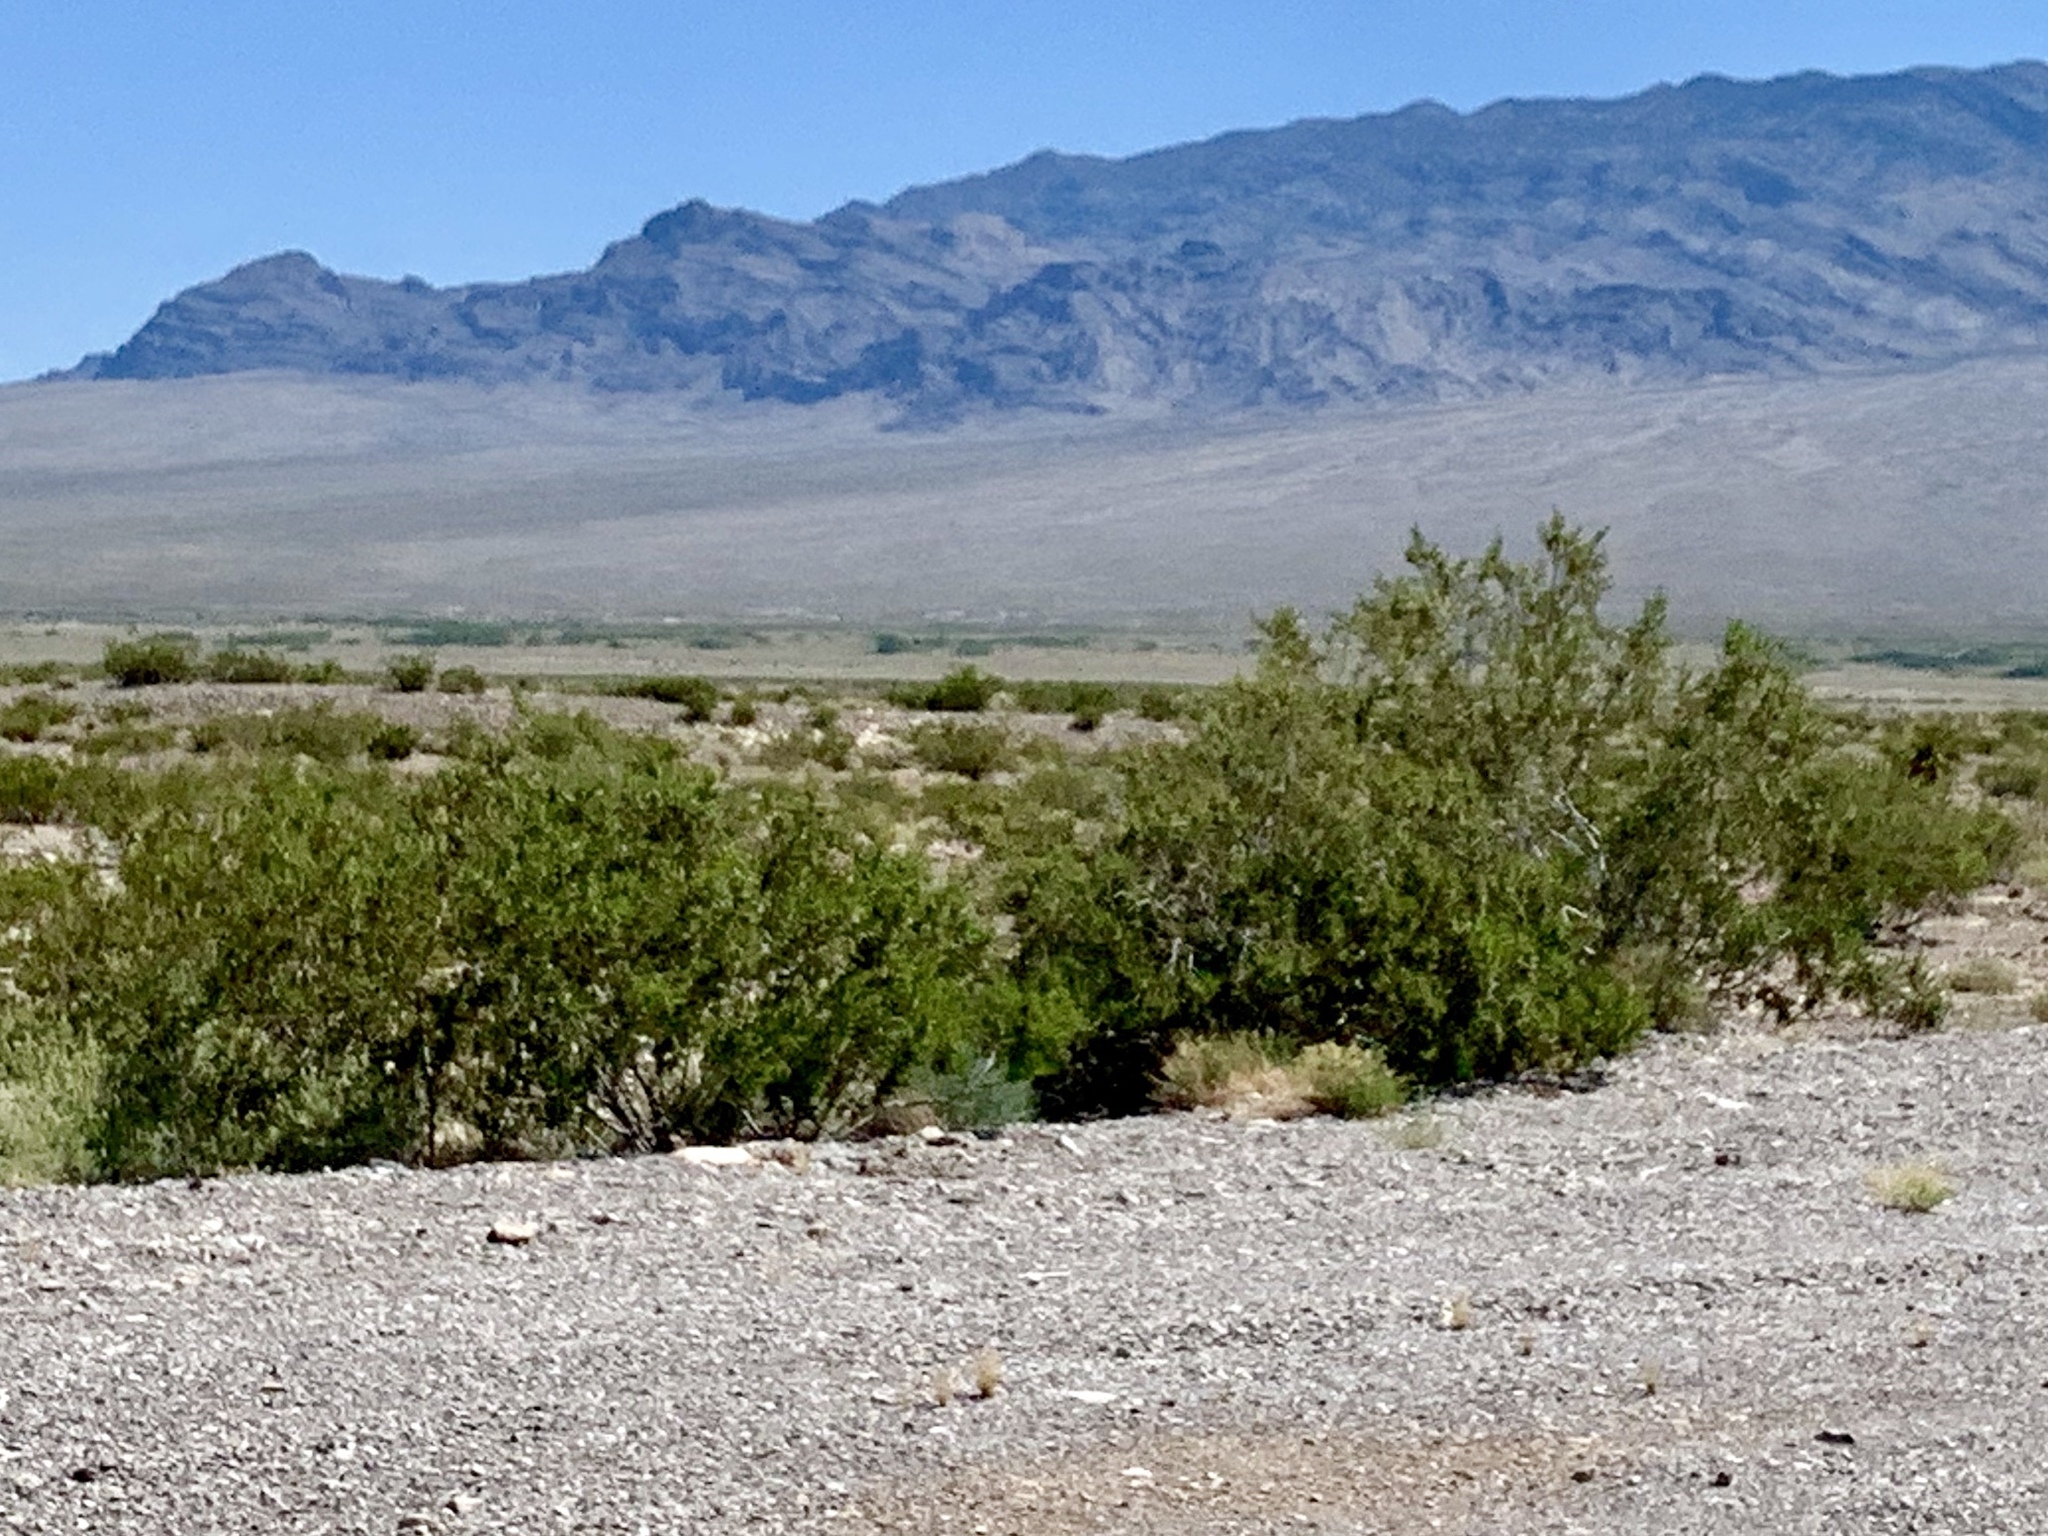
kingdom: Plantae
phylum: Tracheophyta
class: Magnoliopsida
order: Zygophyllales
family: Zygophyllaceae
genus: Larrea
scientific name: Larrea tridentata
